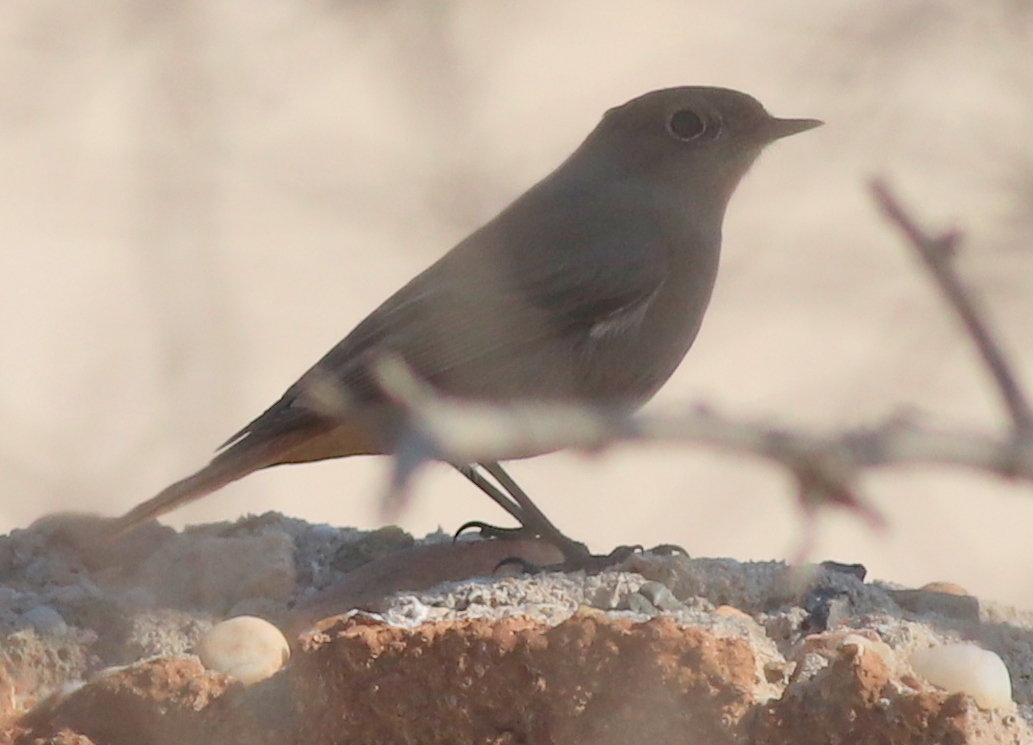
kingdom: Animalia
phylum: Chordata
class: Aves
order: Passeriformes
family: Muscicapidae
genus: Phoenicurus
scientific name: Phoenicurus ochruros
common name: Black redstart
